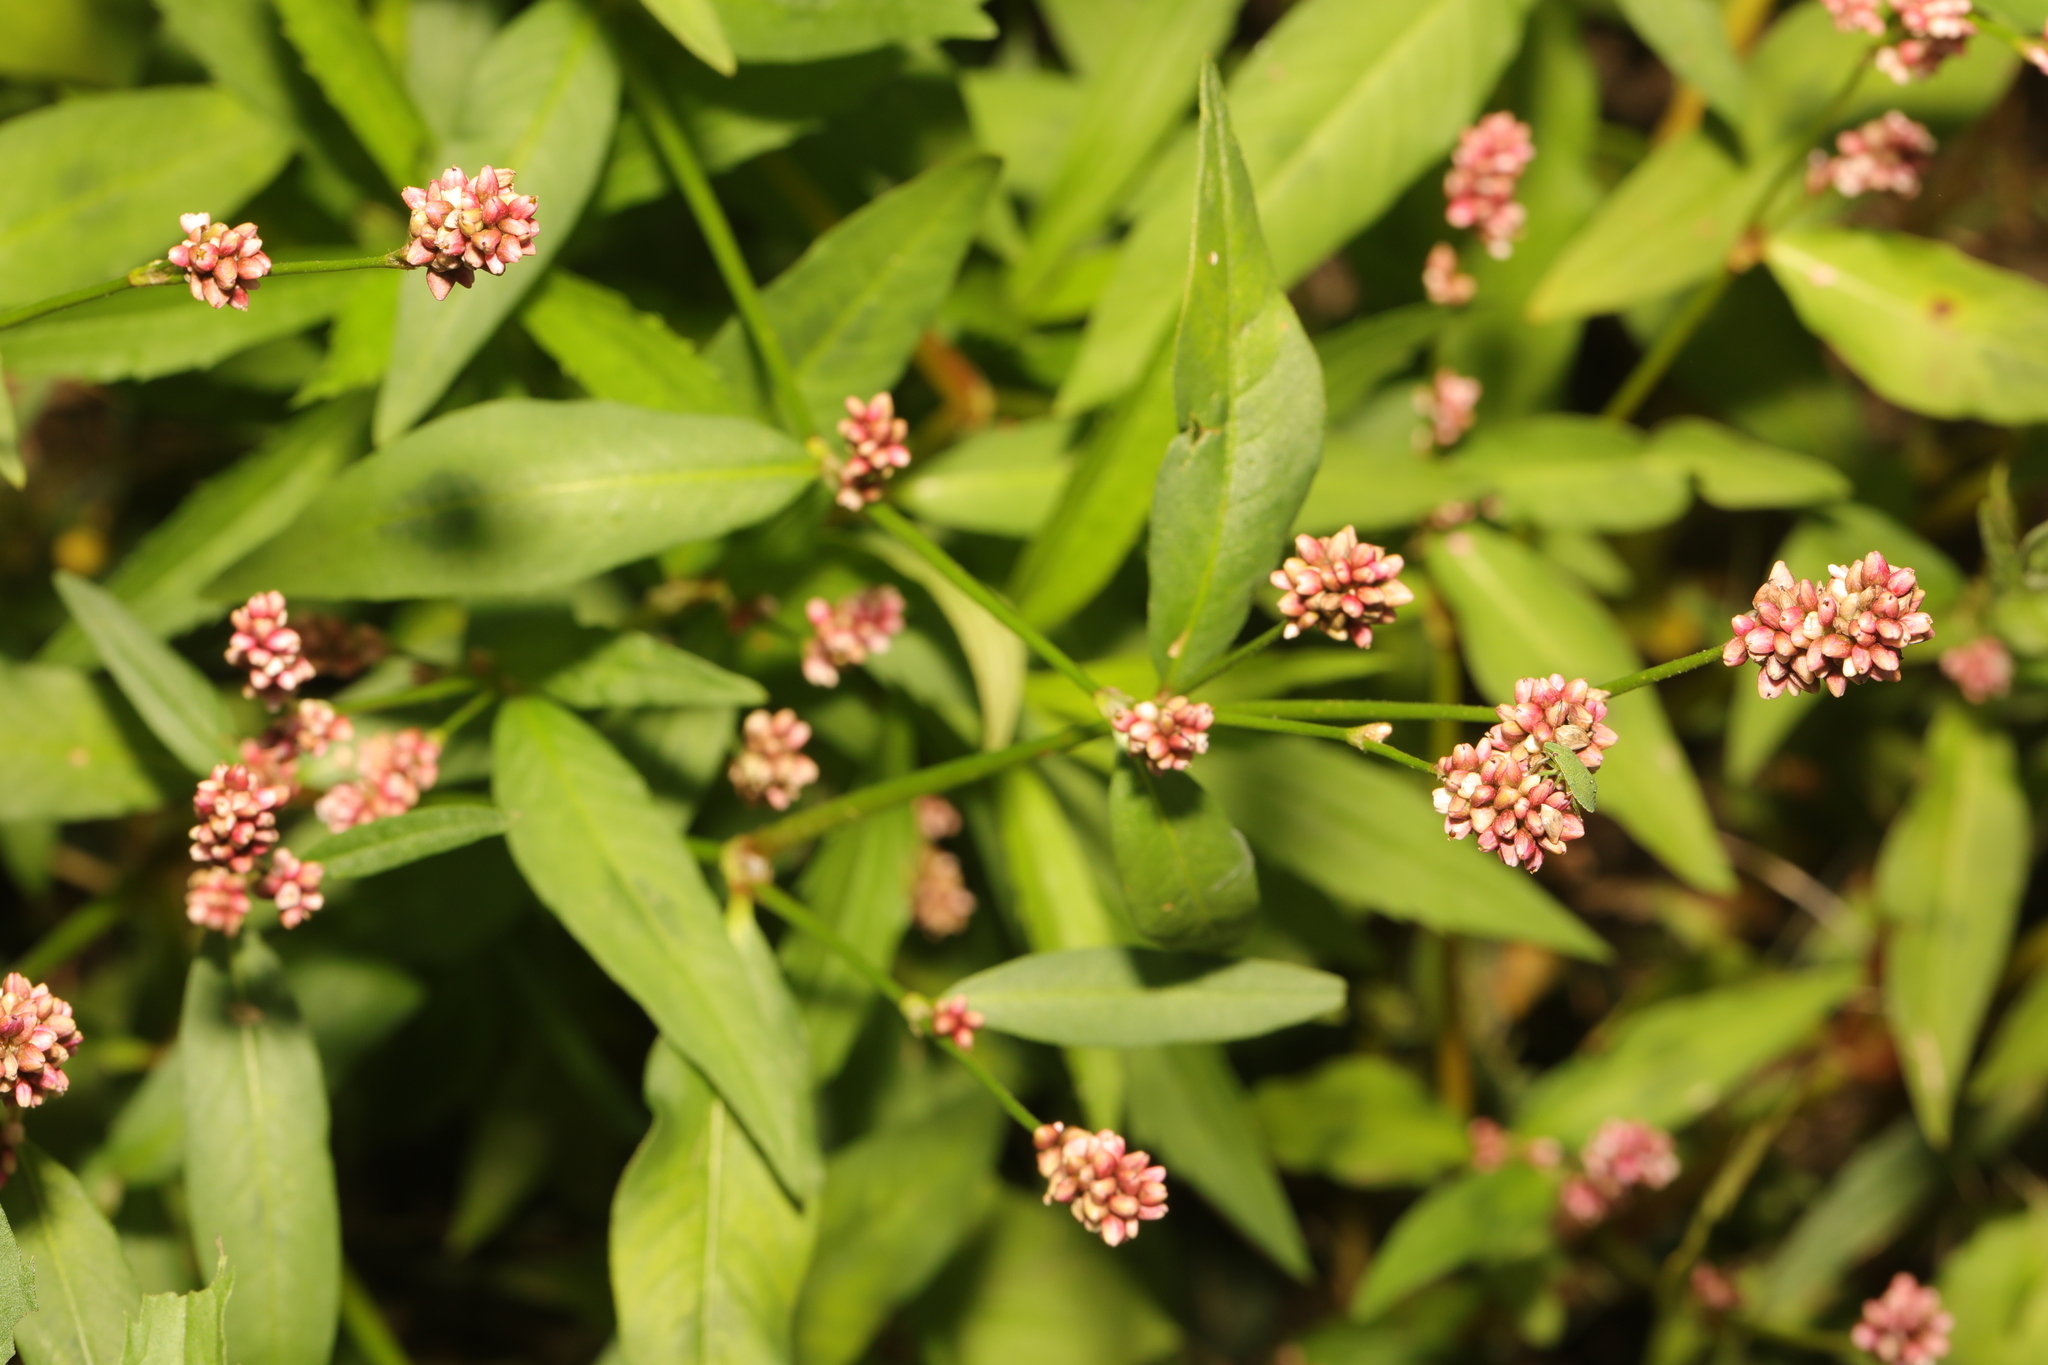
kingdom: Plantae
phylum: Tracheophyta
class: Magnoliopsida
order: Caryophyllales
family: Polygonaceae
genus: Persicaria
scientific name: Persicaria maculosa
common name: Redshank
